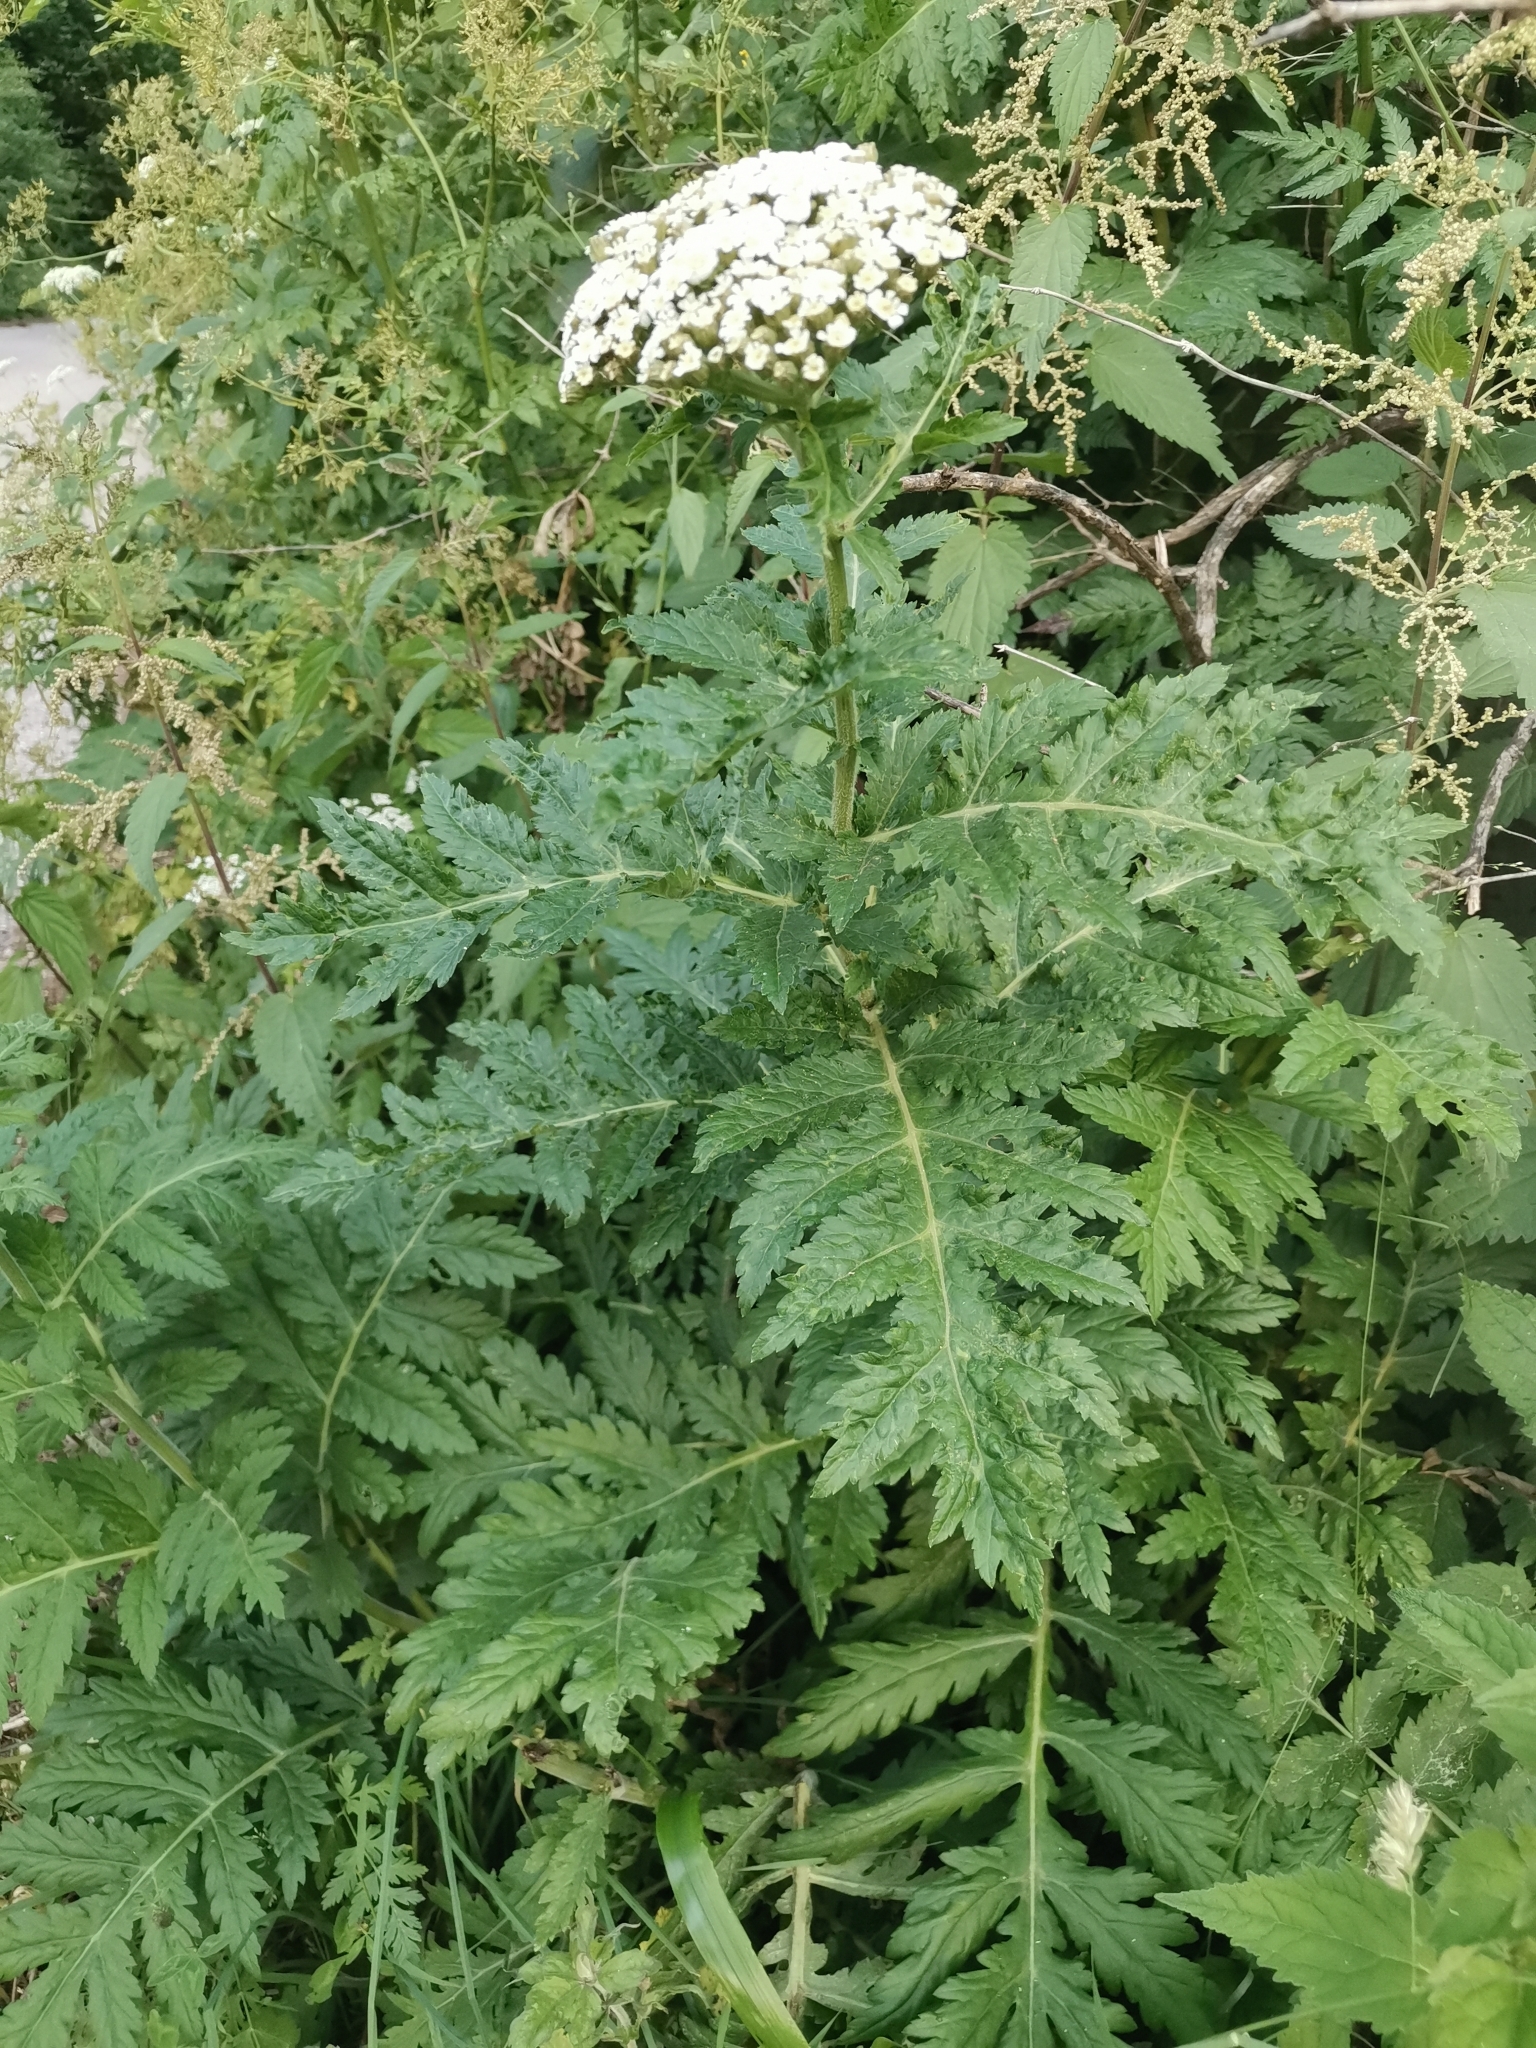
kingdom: Plantae
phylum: Tracheophyta
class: Magnoliopsida
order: Asterales
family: Asteraceae
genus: Tanacetum
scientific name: Tanacetum macrophyllum
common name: Rayed tansy
